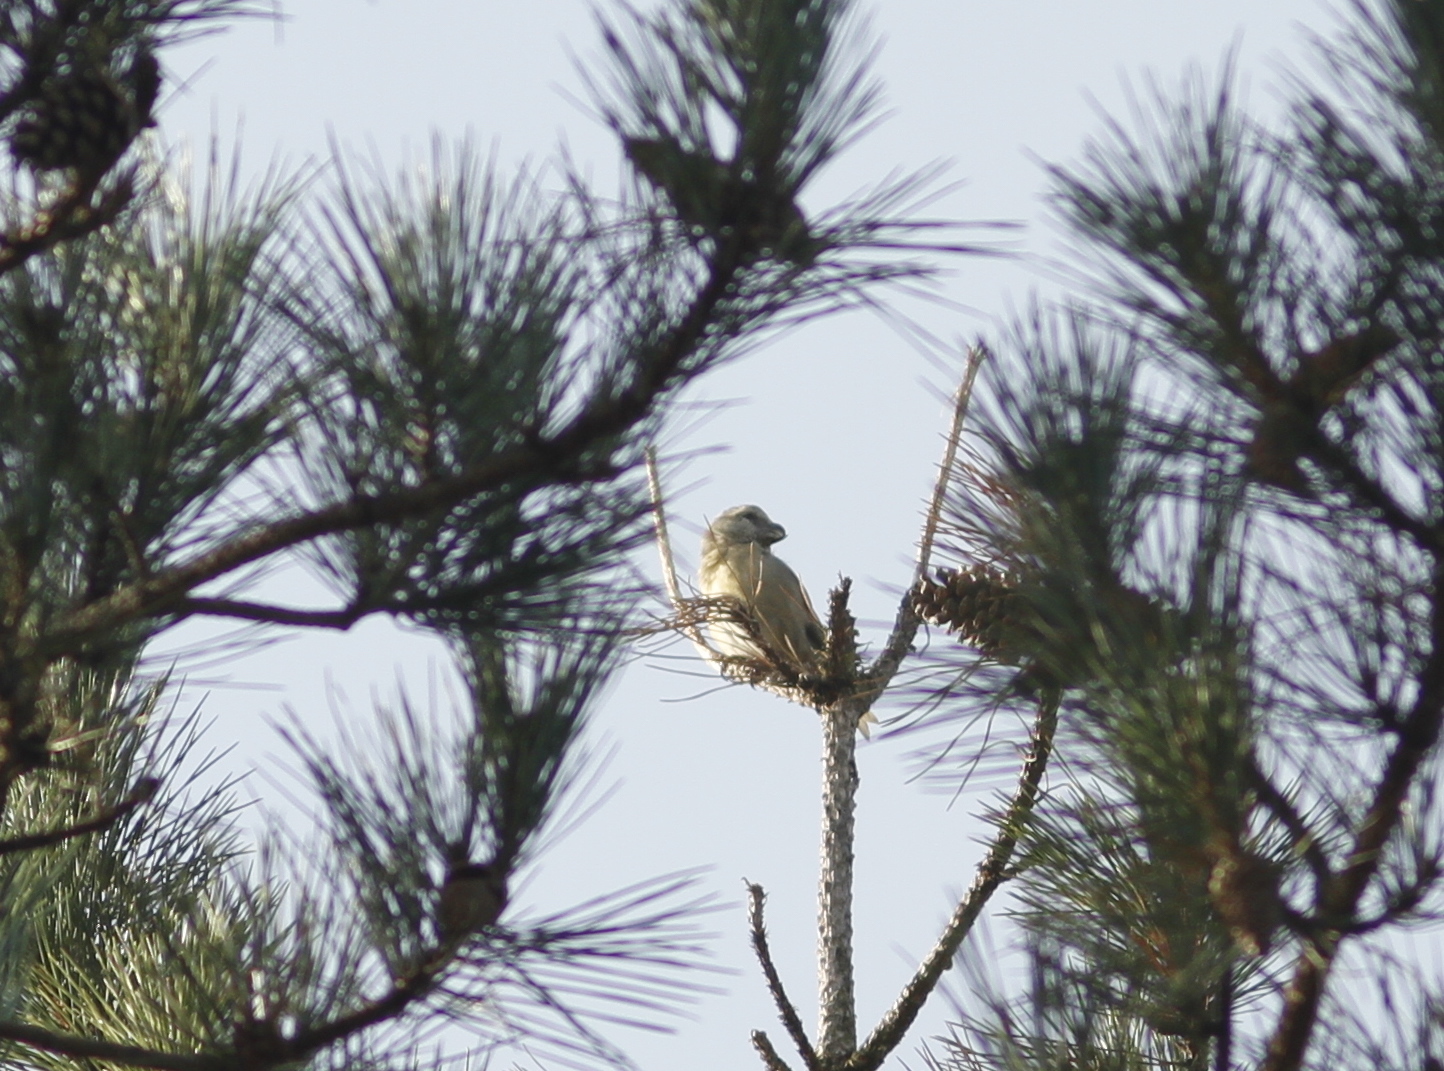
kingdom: Animalia
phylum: Chordata
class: Aves
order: Passeriformes
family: Fringillidae
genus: Loxia
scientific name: Loxia pytyopsittacus
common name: Parrot crossbill
